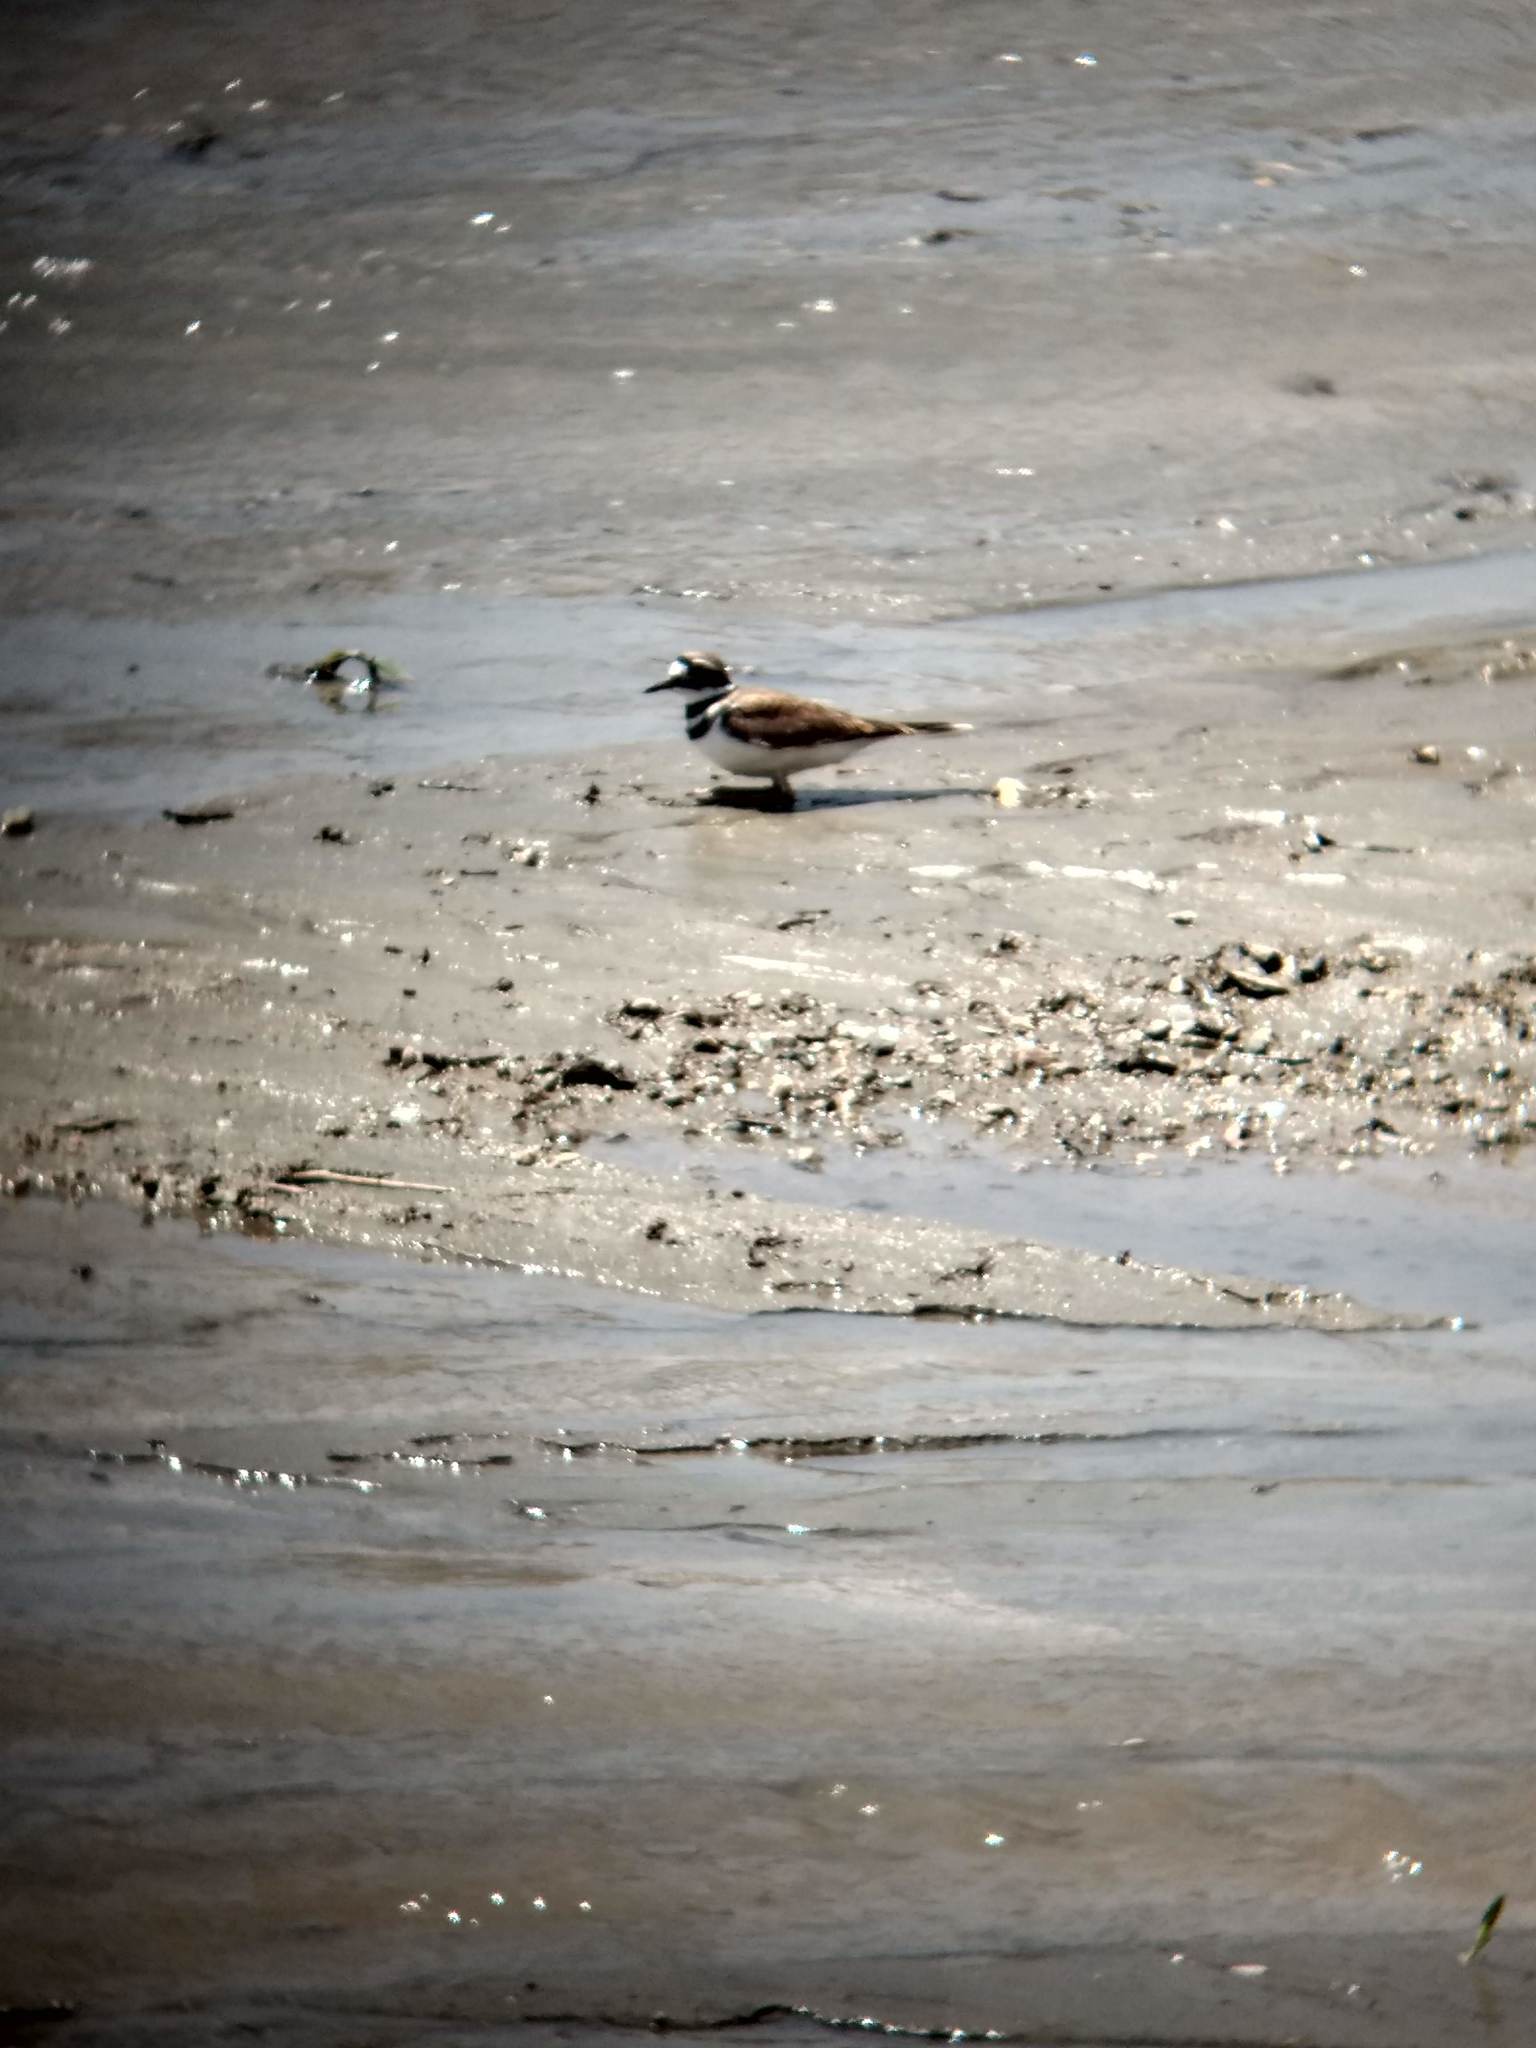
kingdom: Animalia
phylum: Chordata
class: Aves
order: Charadriiformes
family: Charadriidae
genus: Charadrius
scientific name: Charadrius vociferus
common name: Killdeer
